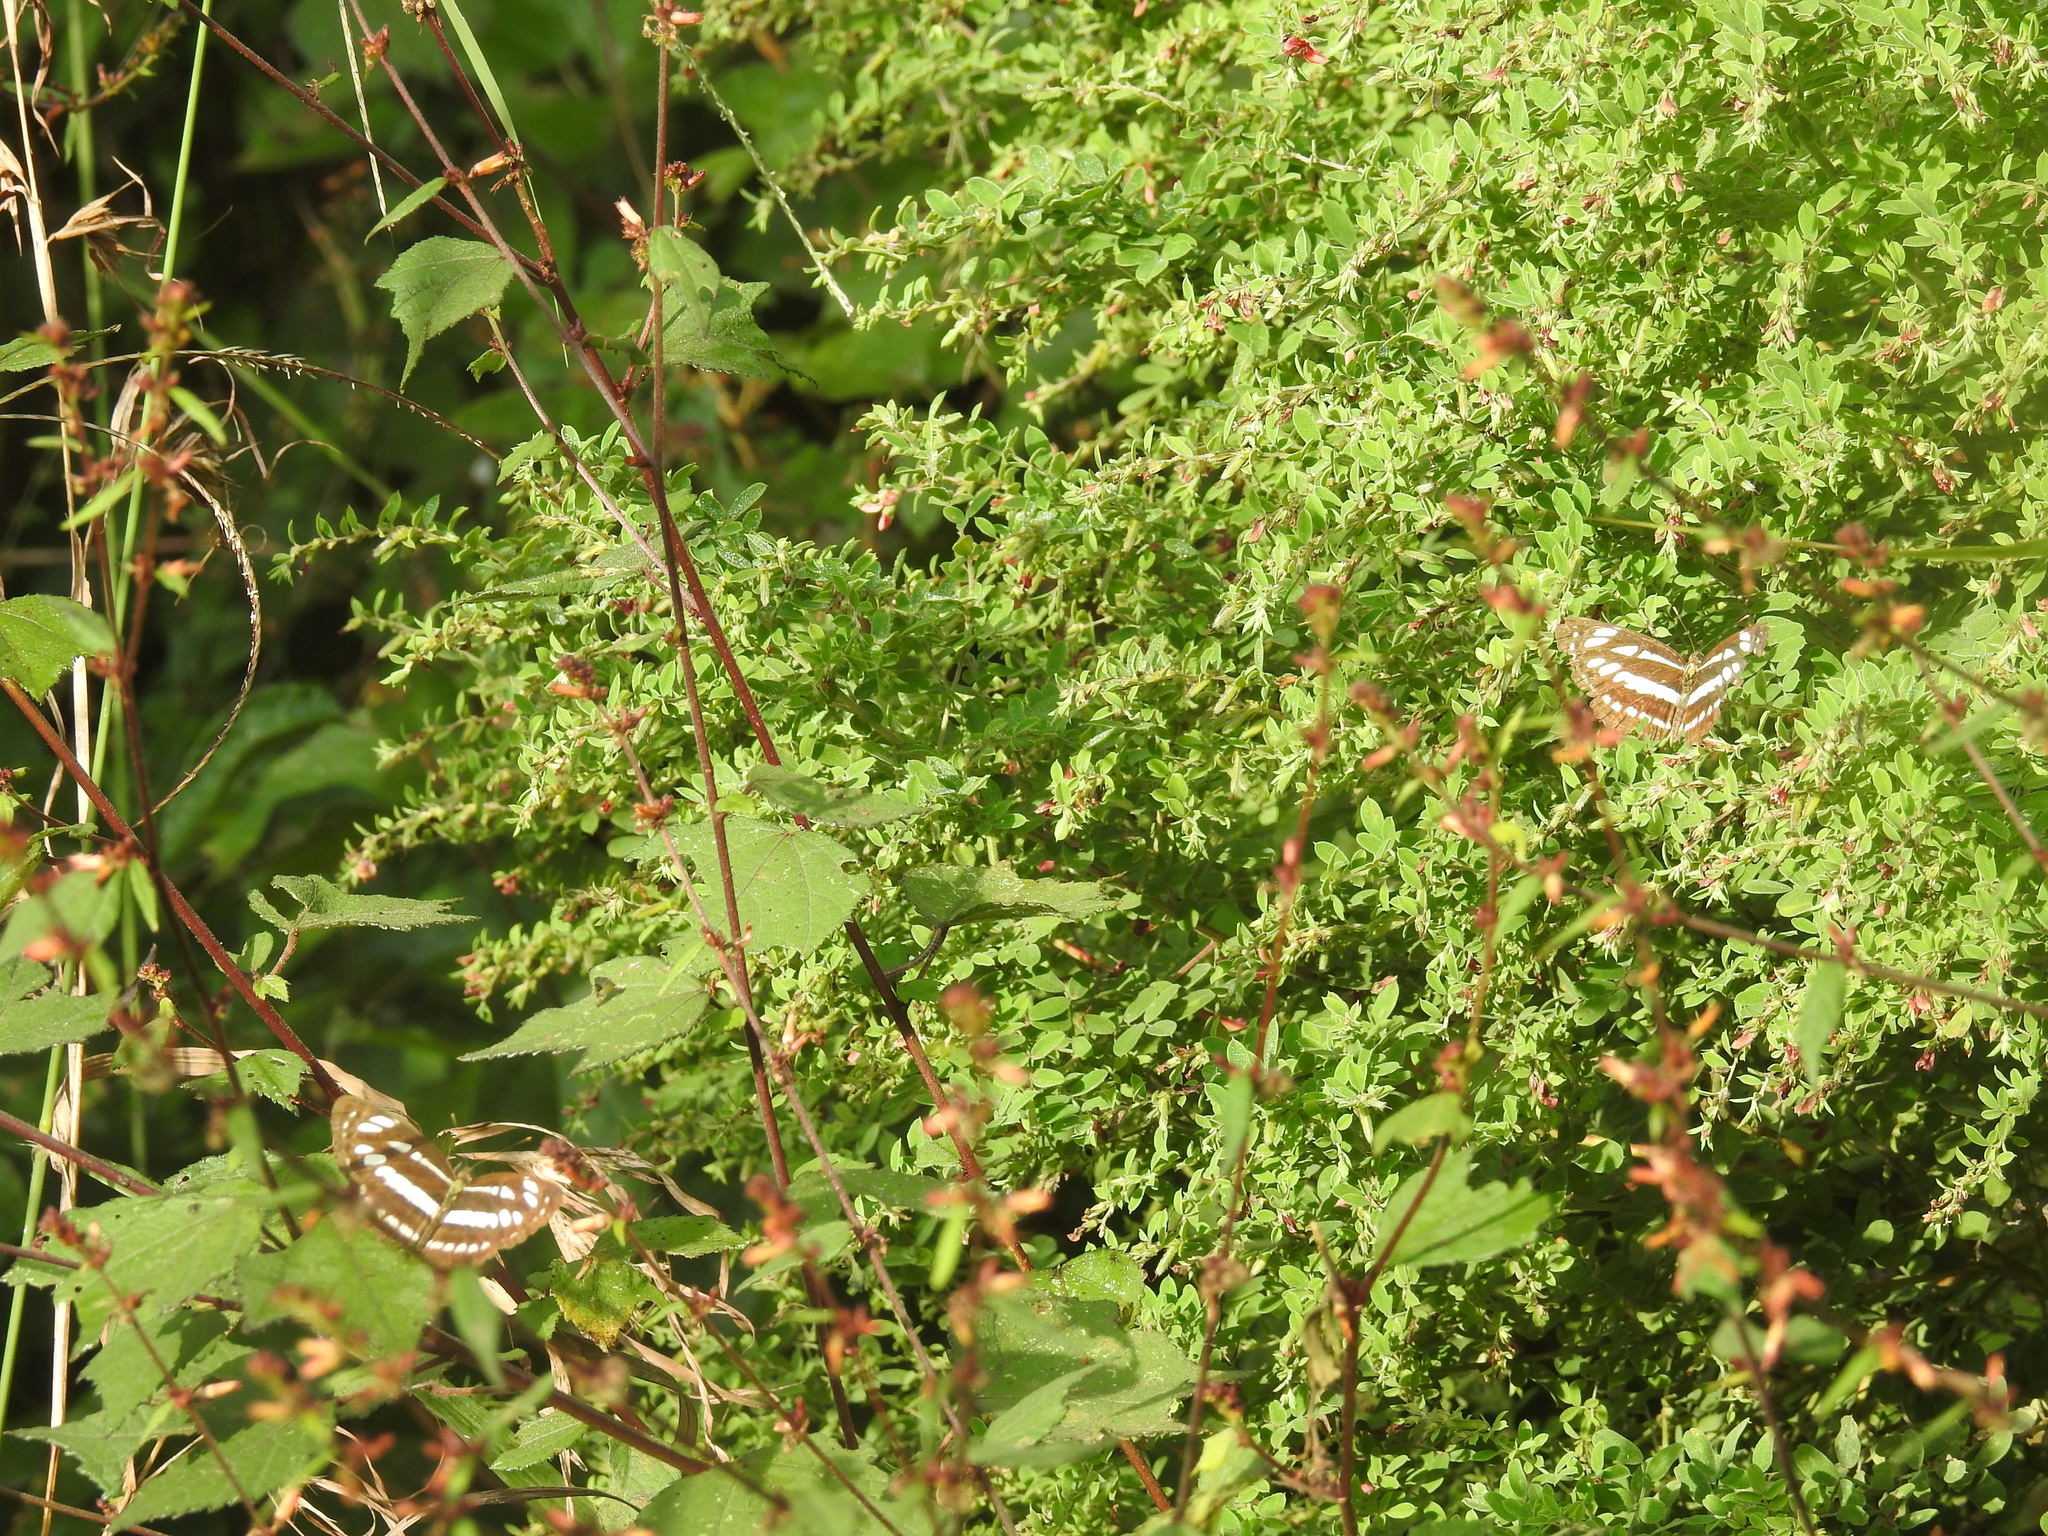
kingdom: Animalia
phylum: Arthropoda
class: Insecta
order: Lepidoptera
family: Nymphalidae
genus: Neptis
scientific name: Neptis hylas
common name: Common sailer
